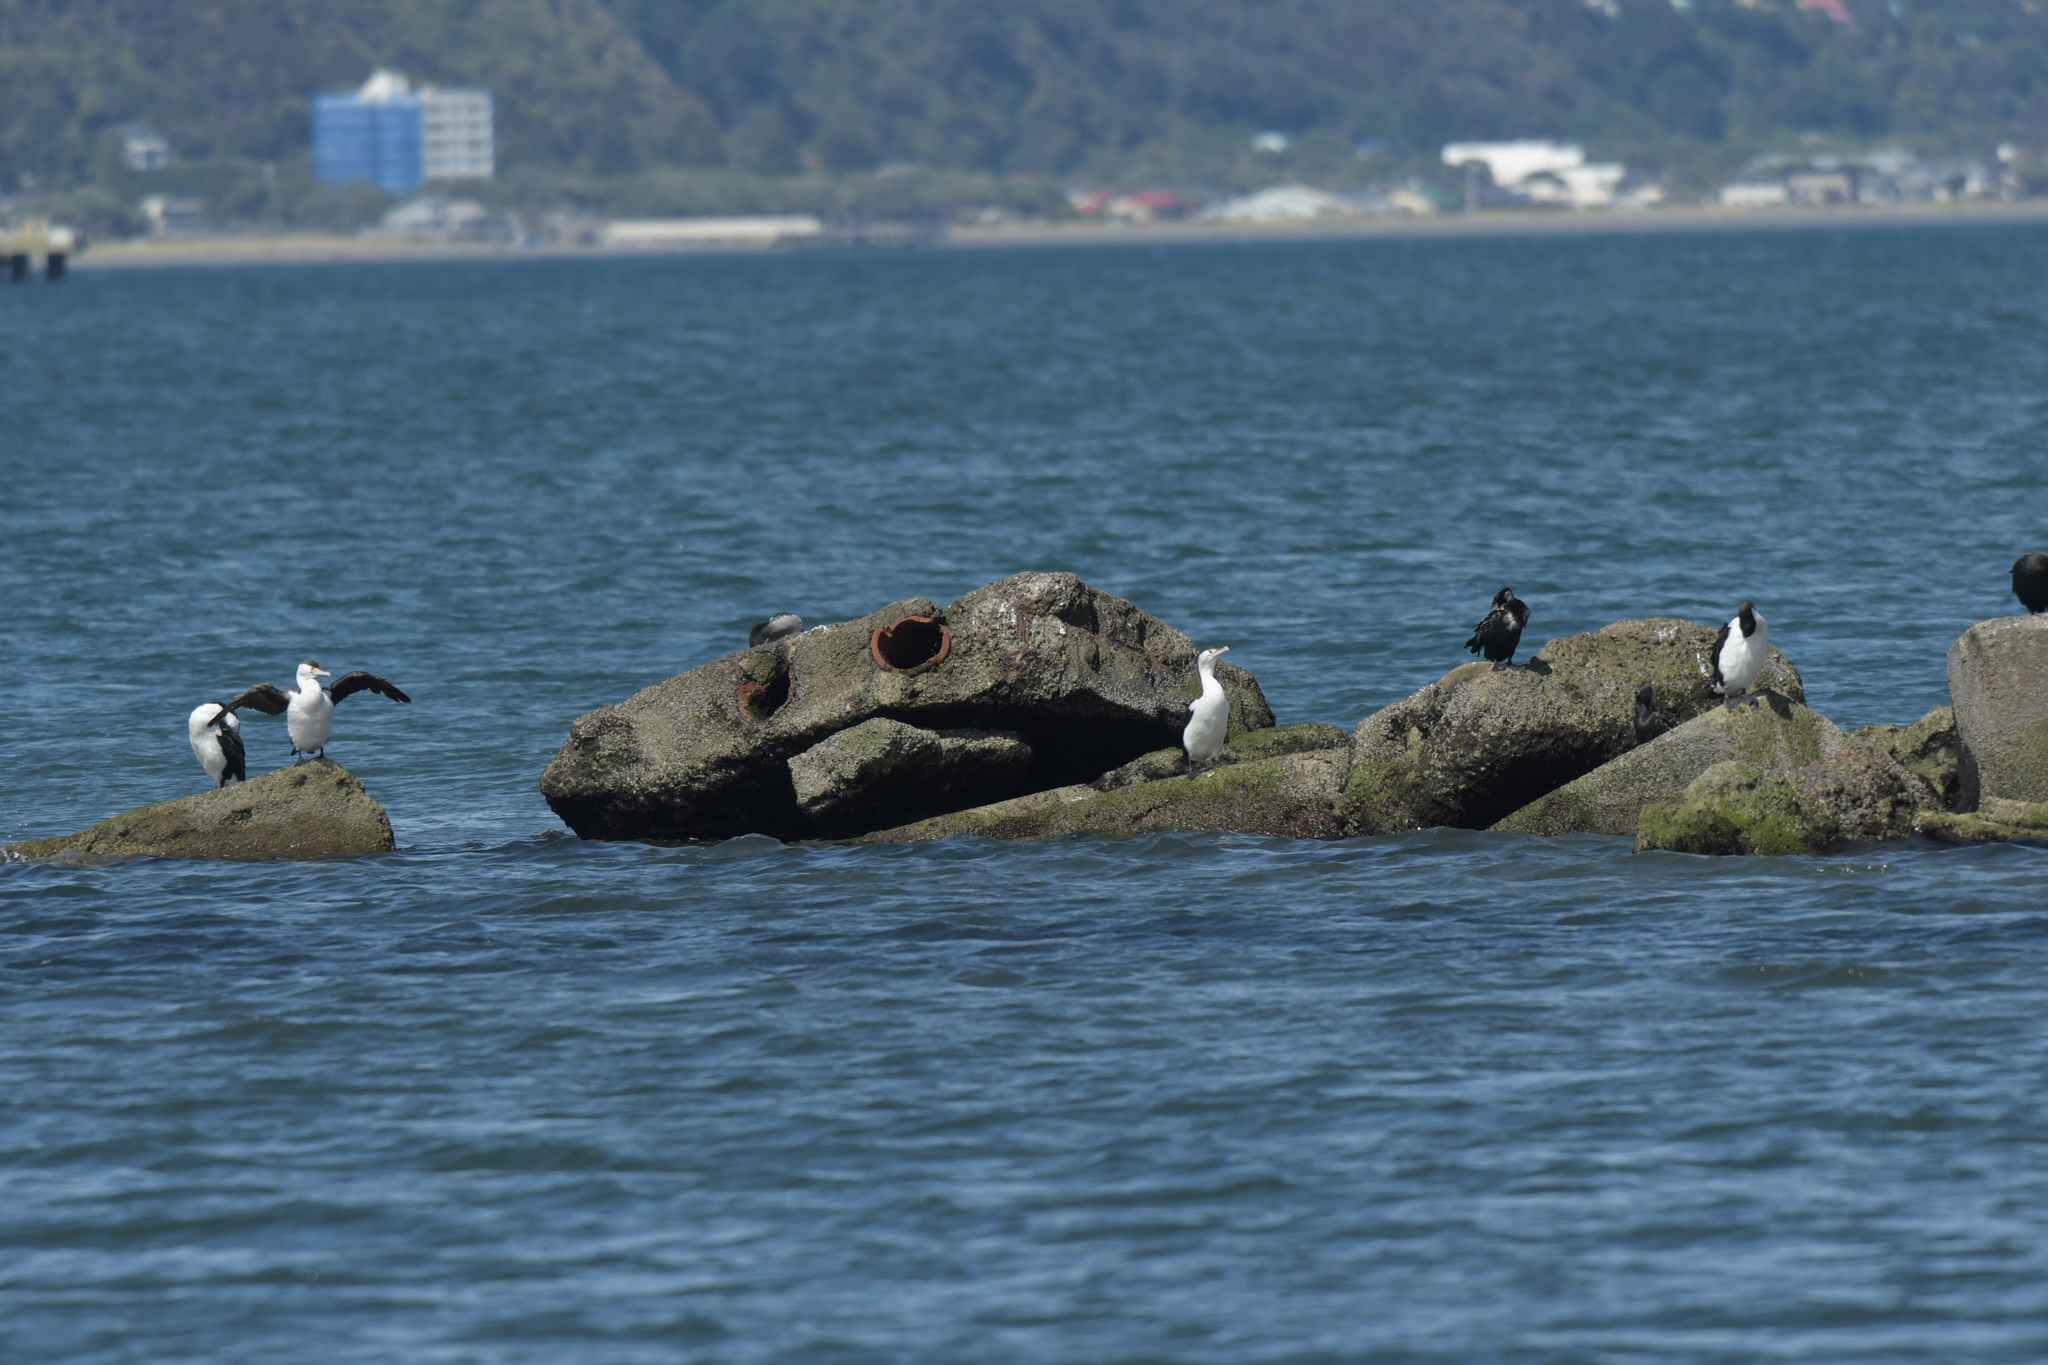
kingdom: Animalia
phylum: Chordata
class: Aves
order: Suliformes
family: Phalacrocoracidae
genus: Phalacrocorax
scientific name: Phalacrocorax varius
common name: Pied cormorant
